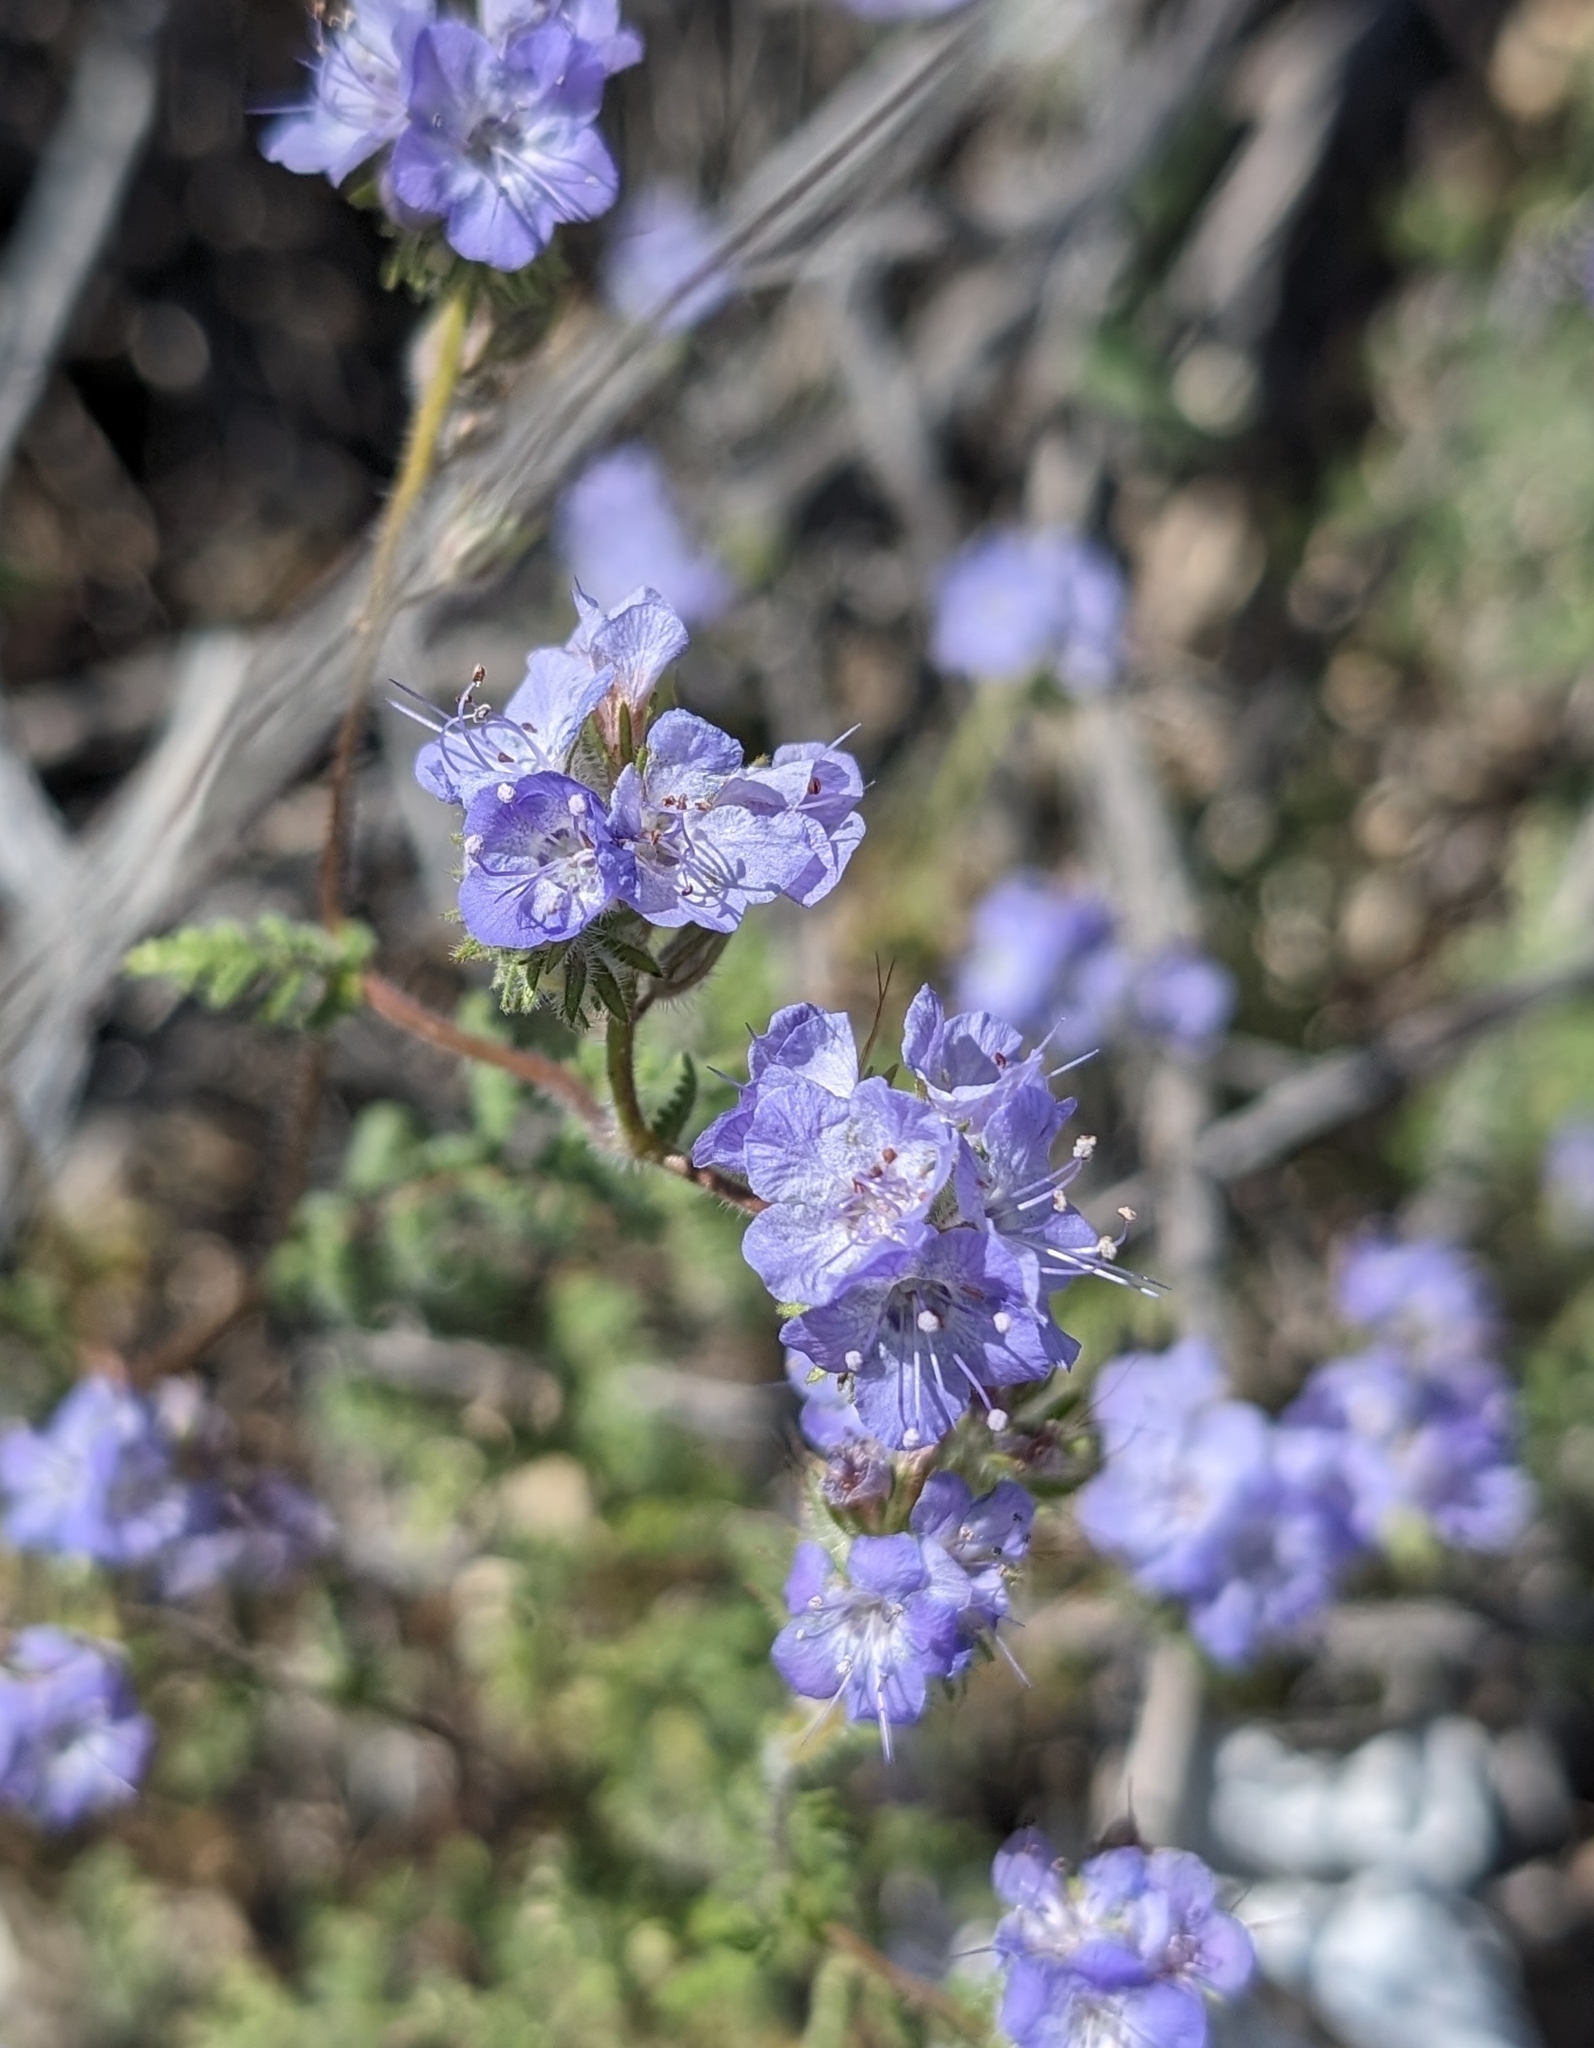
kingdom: Plantae
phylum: Tracheophyta
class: Magnoliopsida
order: Boraginales
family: Hydrophyllaceae
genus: Phacelia
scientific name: Phacelia distans
